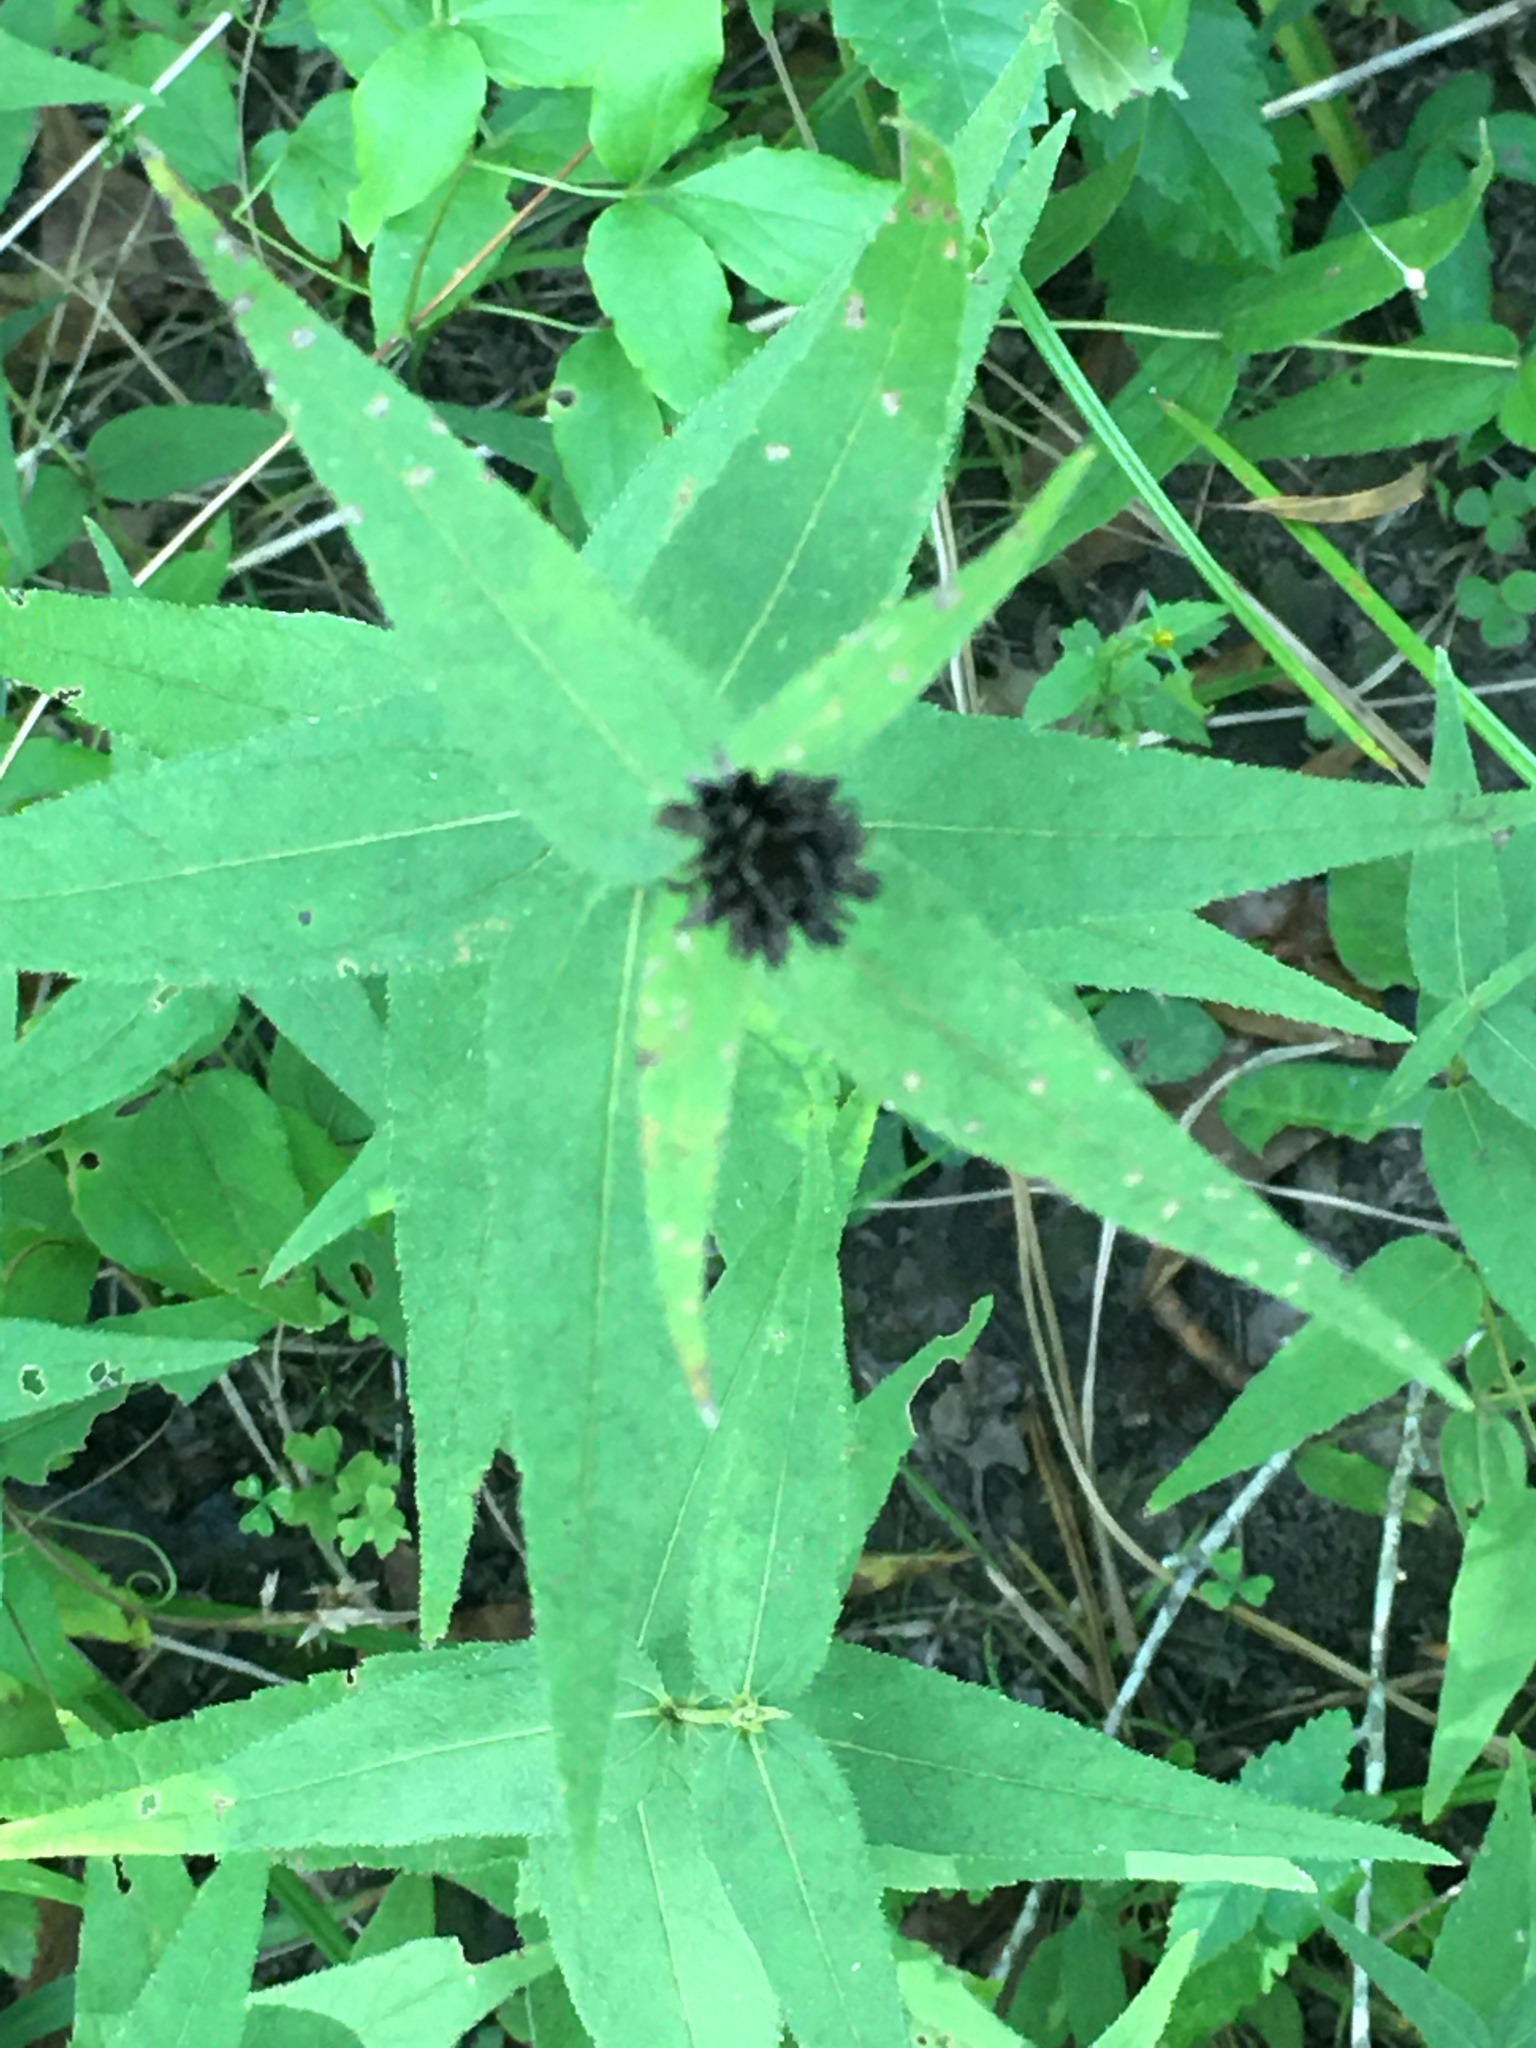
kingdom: Plantae
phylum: Tracheophyta
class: Magnoliopsida
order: Asterales
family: Asteraceae
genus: Helianthus
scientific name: Helianthus divaricatus
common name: Divergent sunflower
